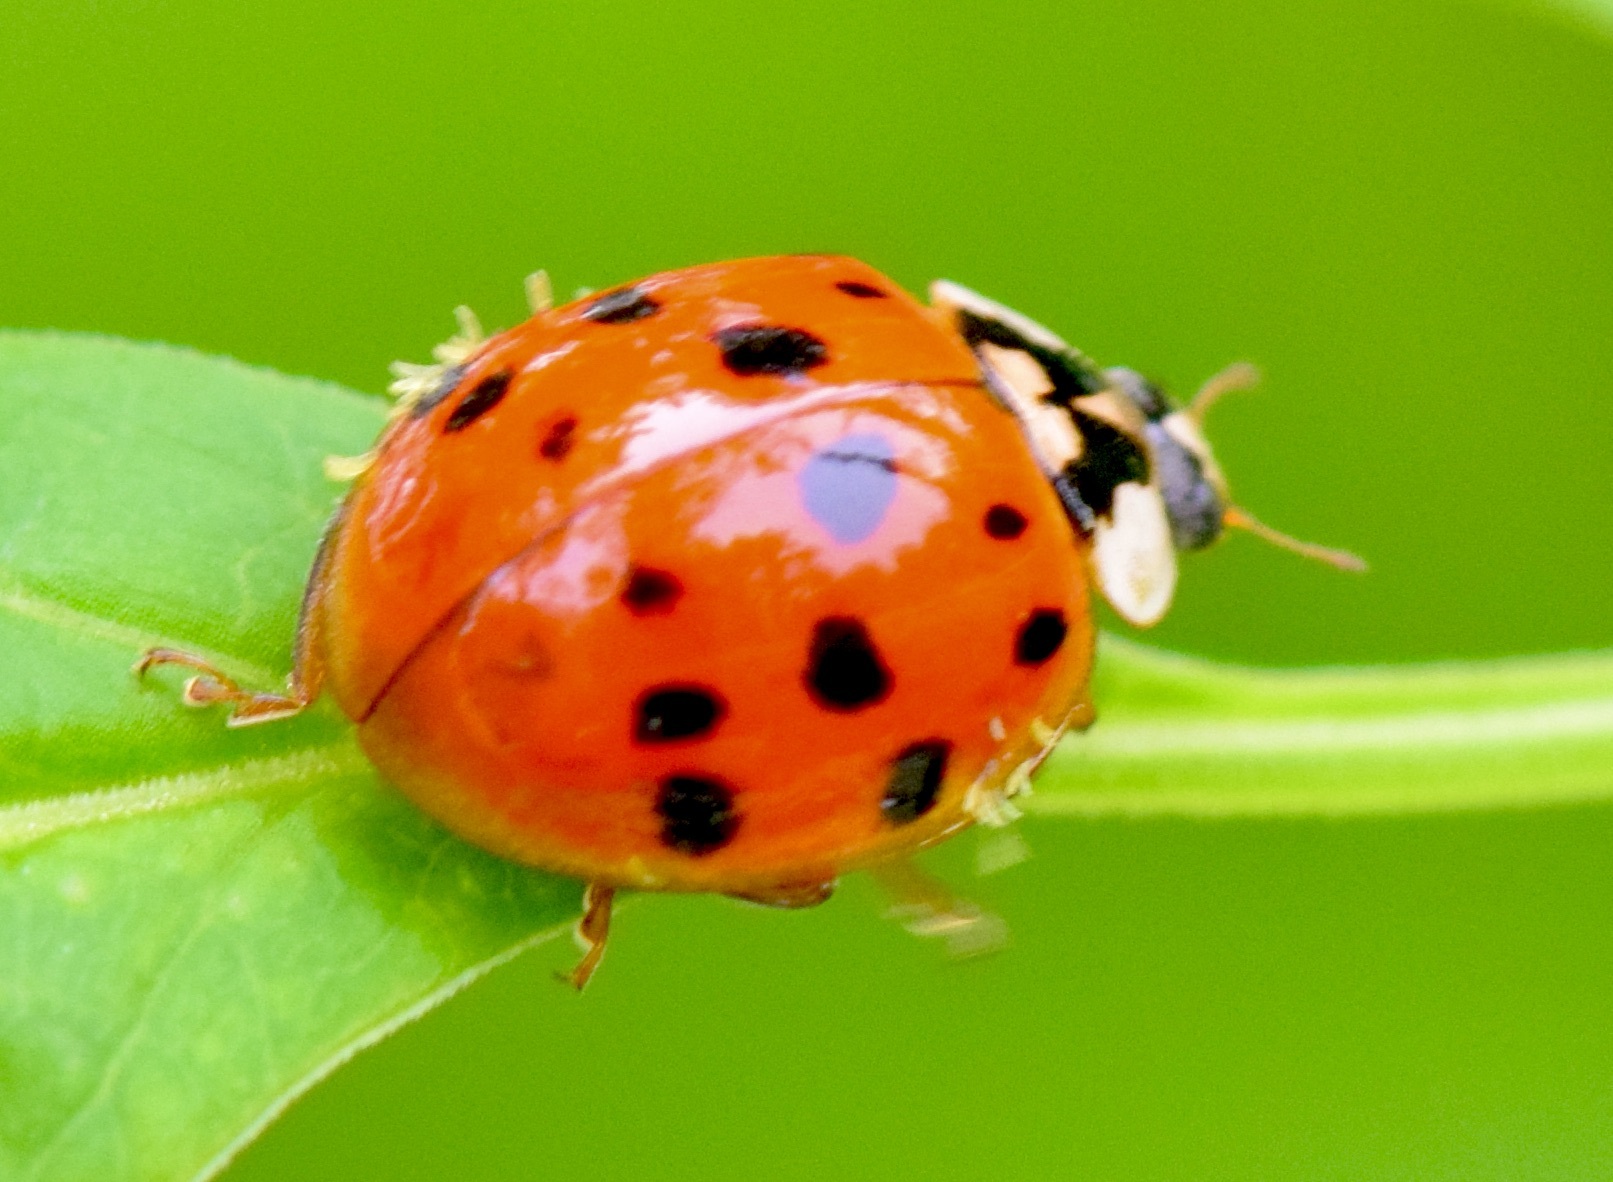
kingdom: Animalia
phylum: Arthropoda
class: Insecta
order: Coleoptera
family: Coccinellidae
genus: Harmonia
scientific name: Harmonia axyridis
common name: Harlequin ladybird
